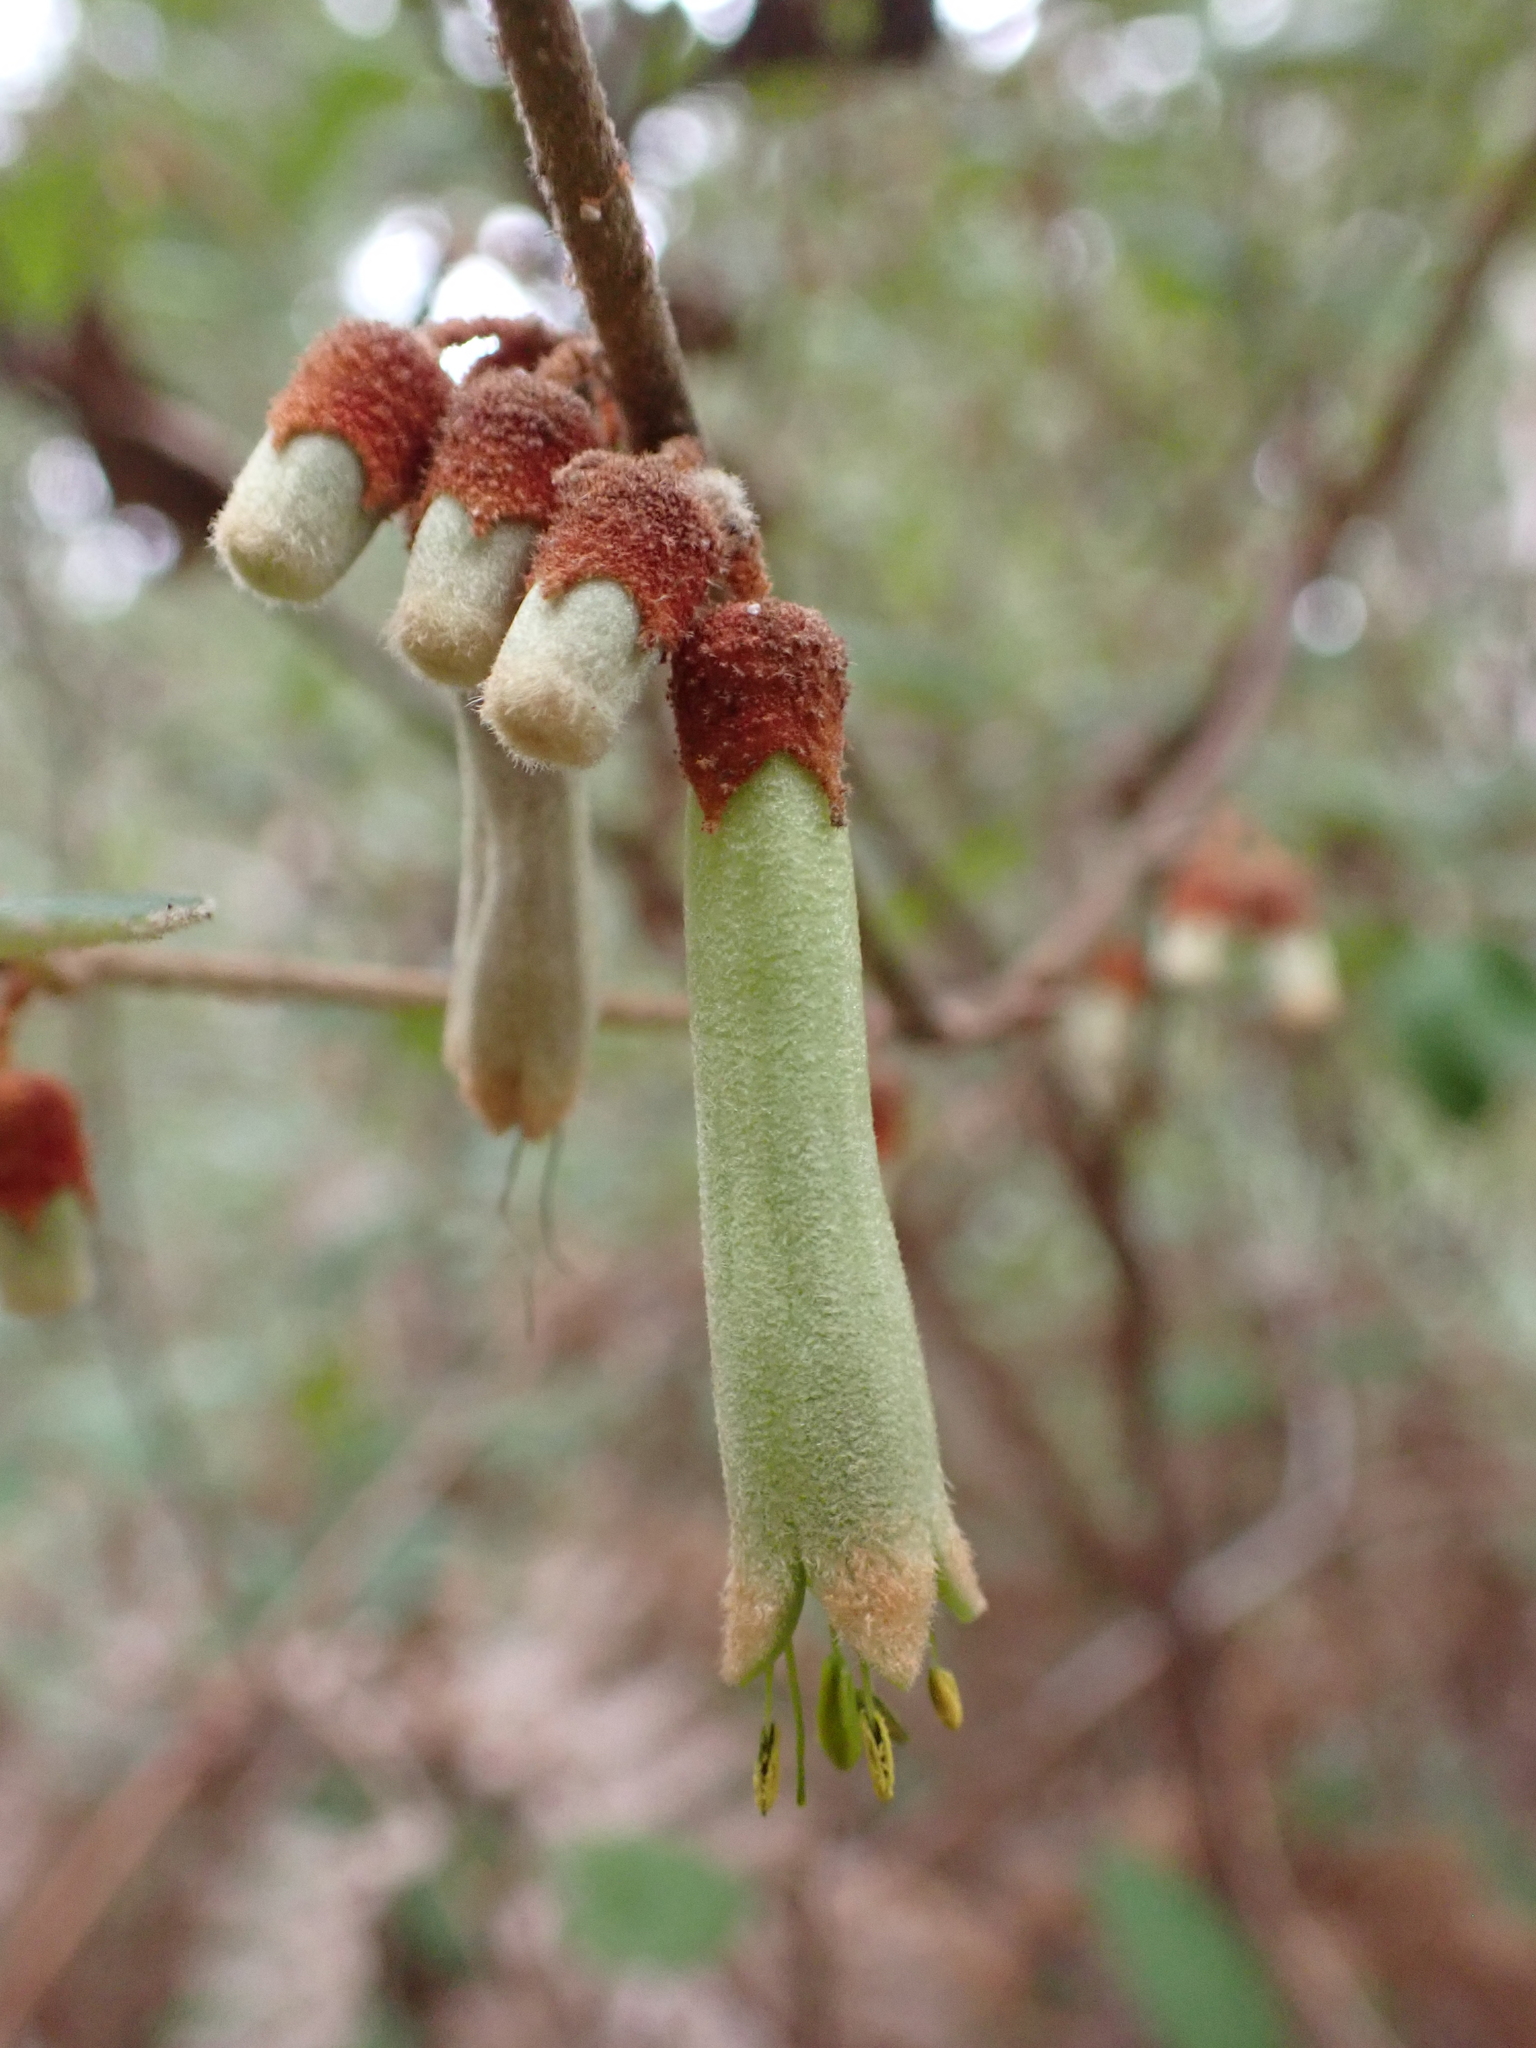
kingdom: Plantae
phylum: Tracheophyta
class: Magnoliopsida
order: Sapindales
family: Rutaceae
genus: Correa
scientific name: Correa lawrenceana
